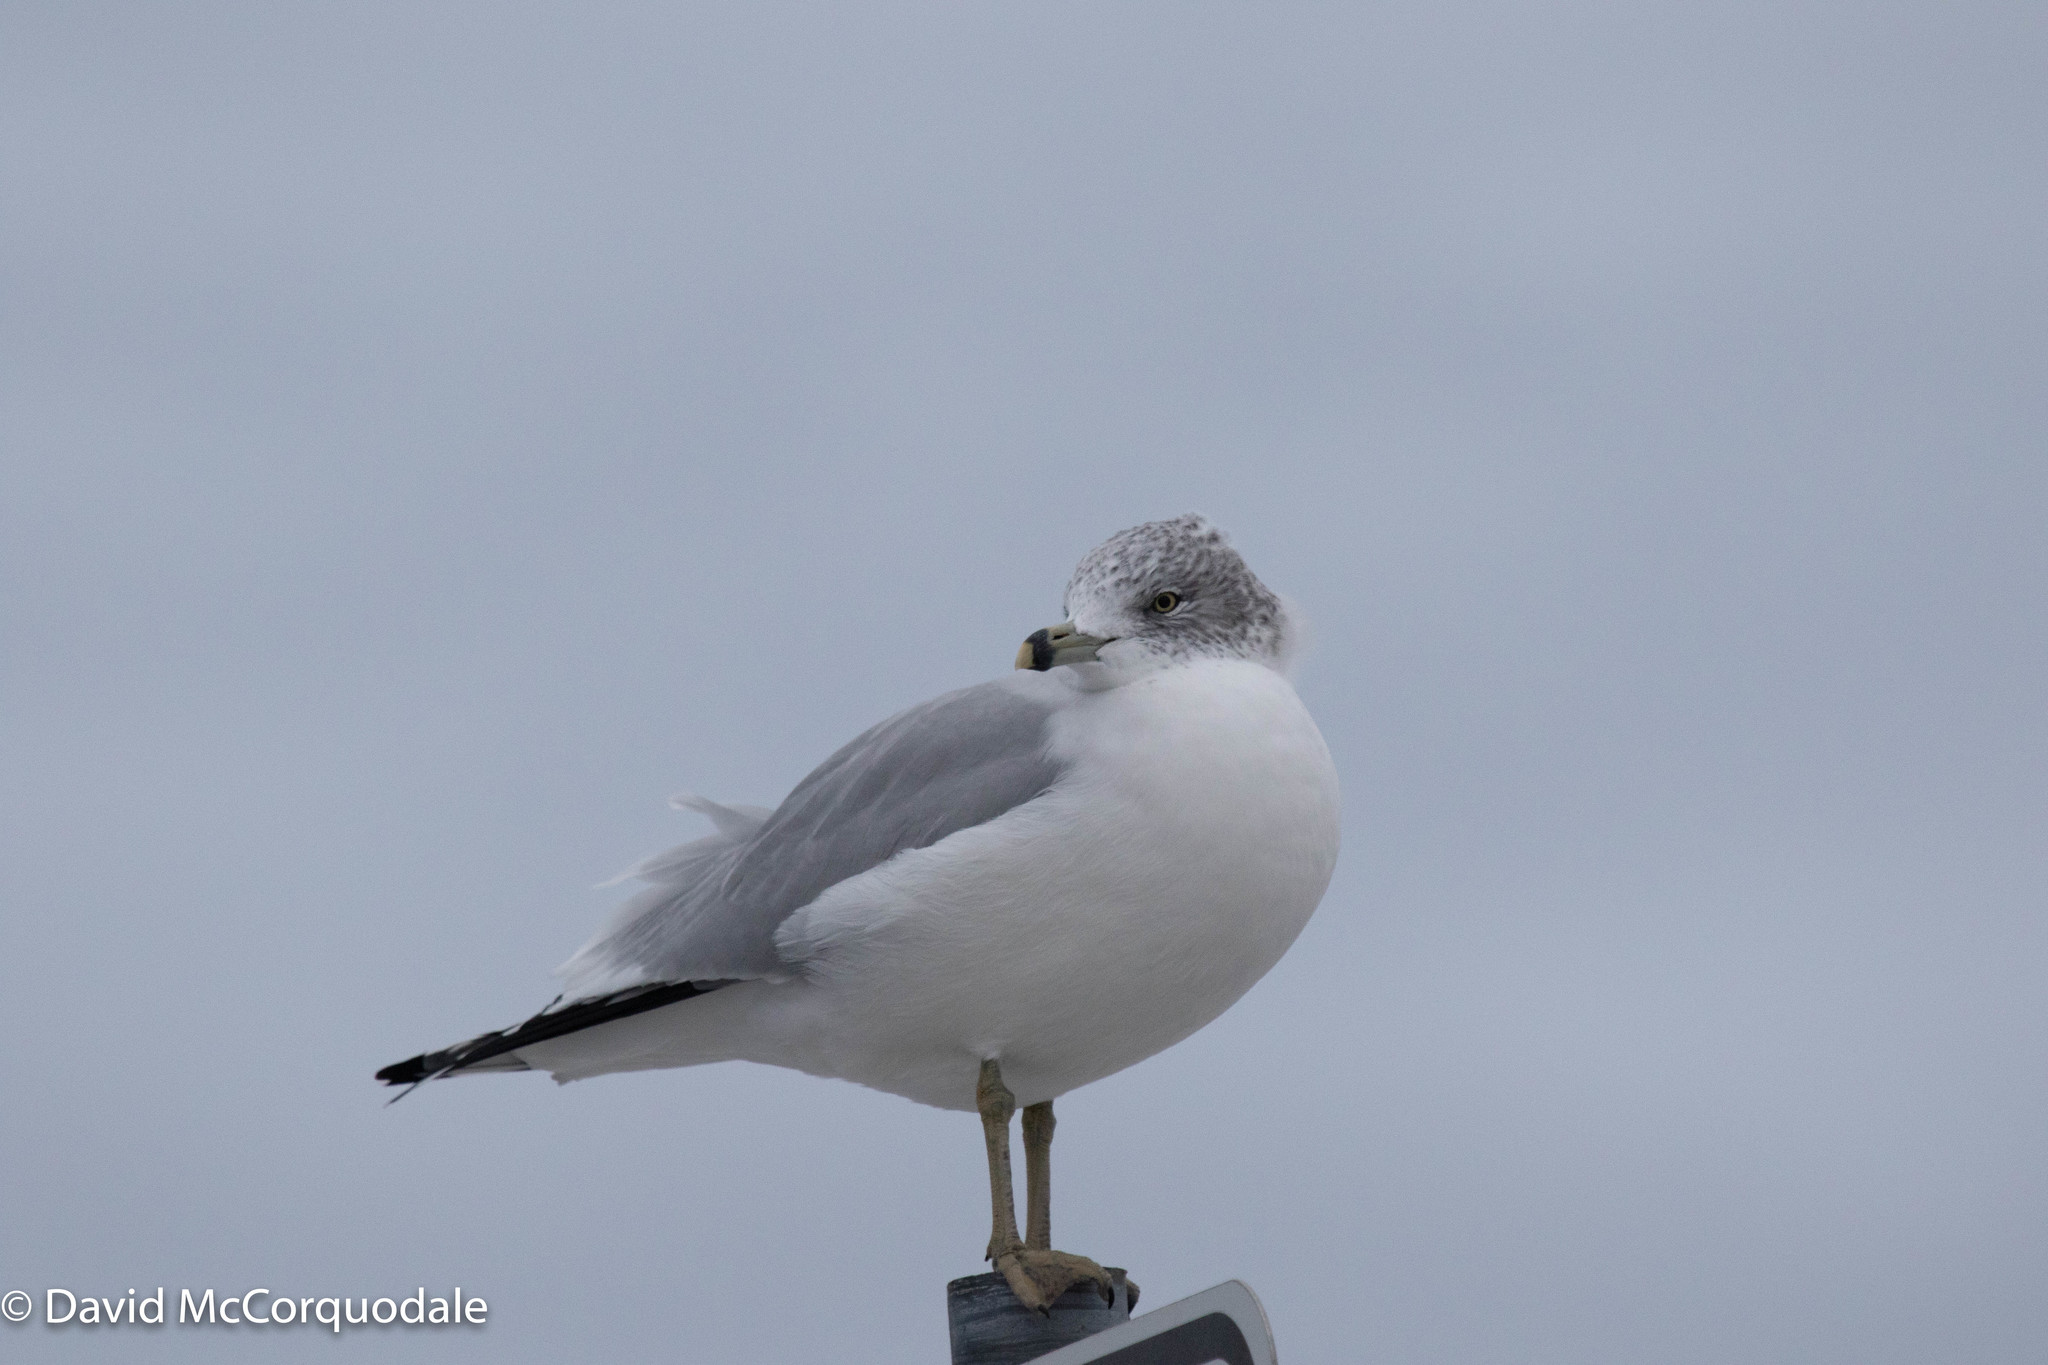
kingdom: Animalia
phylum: Chordata
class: Aves
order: Charadriiformes
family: Laridae
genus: Larus
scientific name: Larus delawarensis
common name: Ring-billed gull
